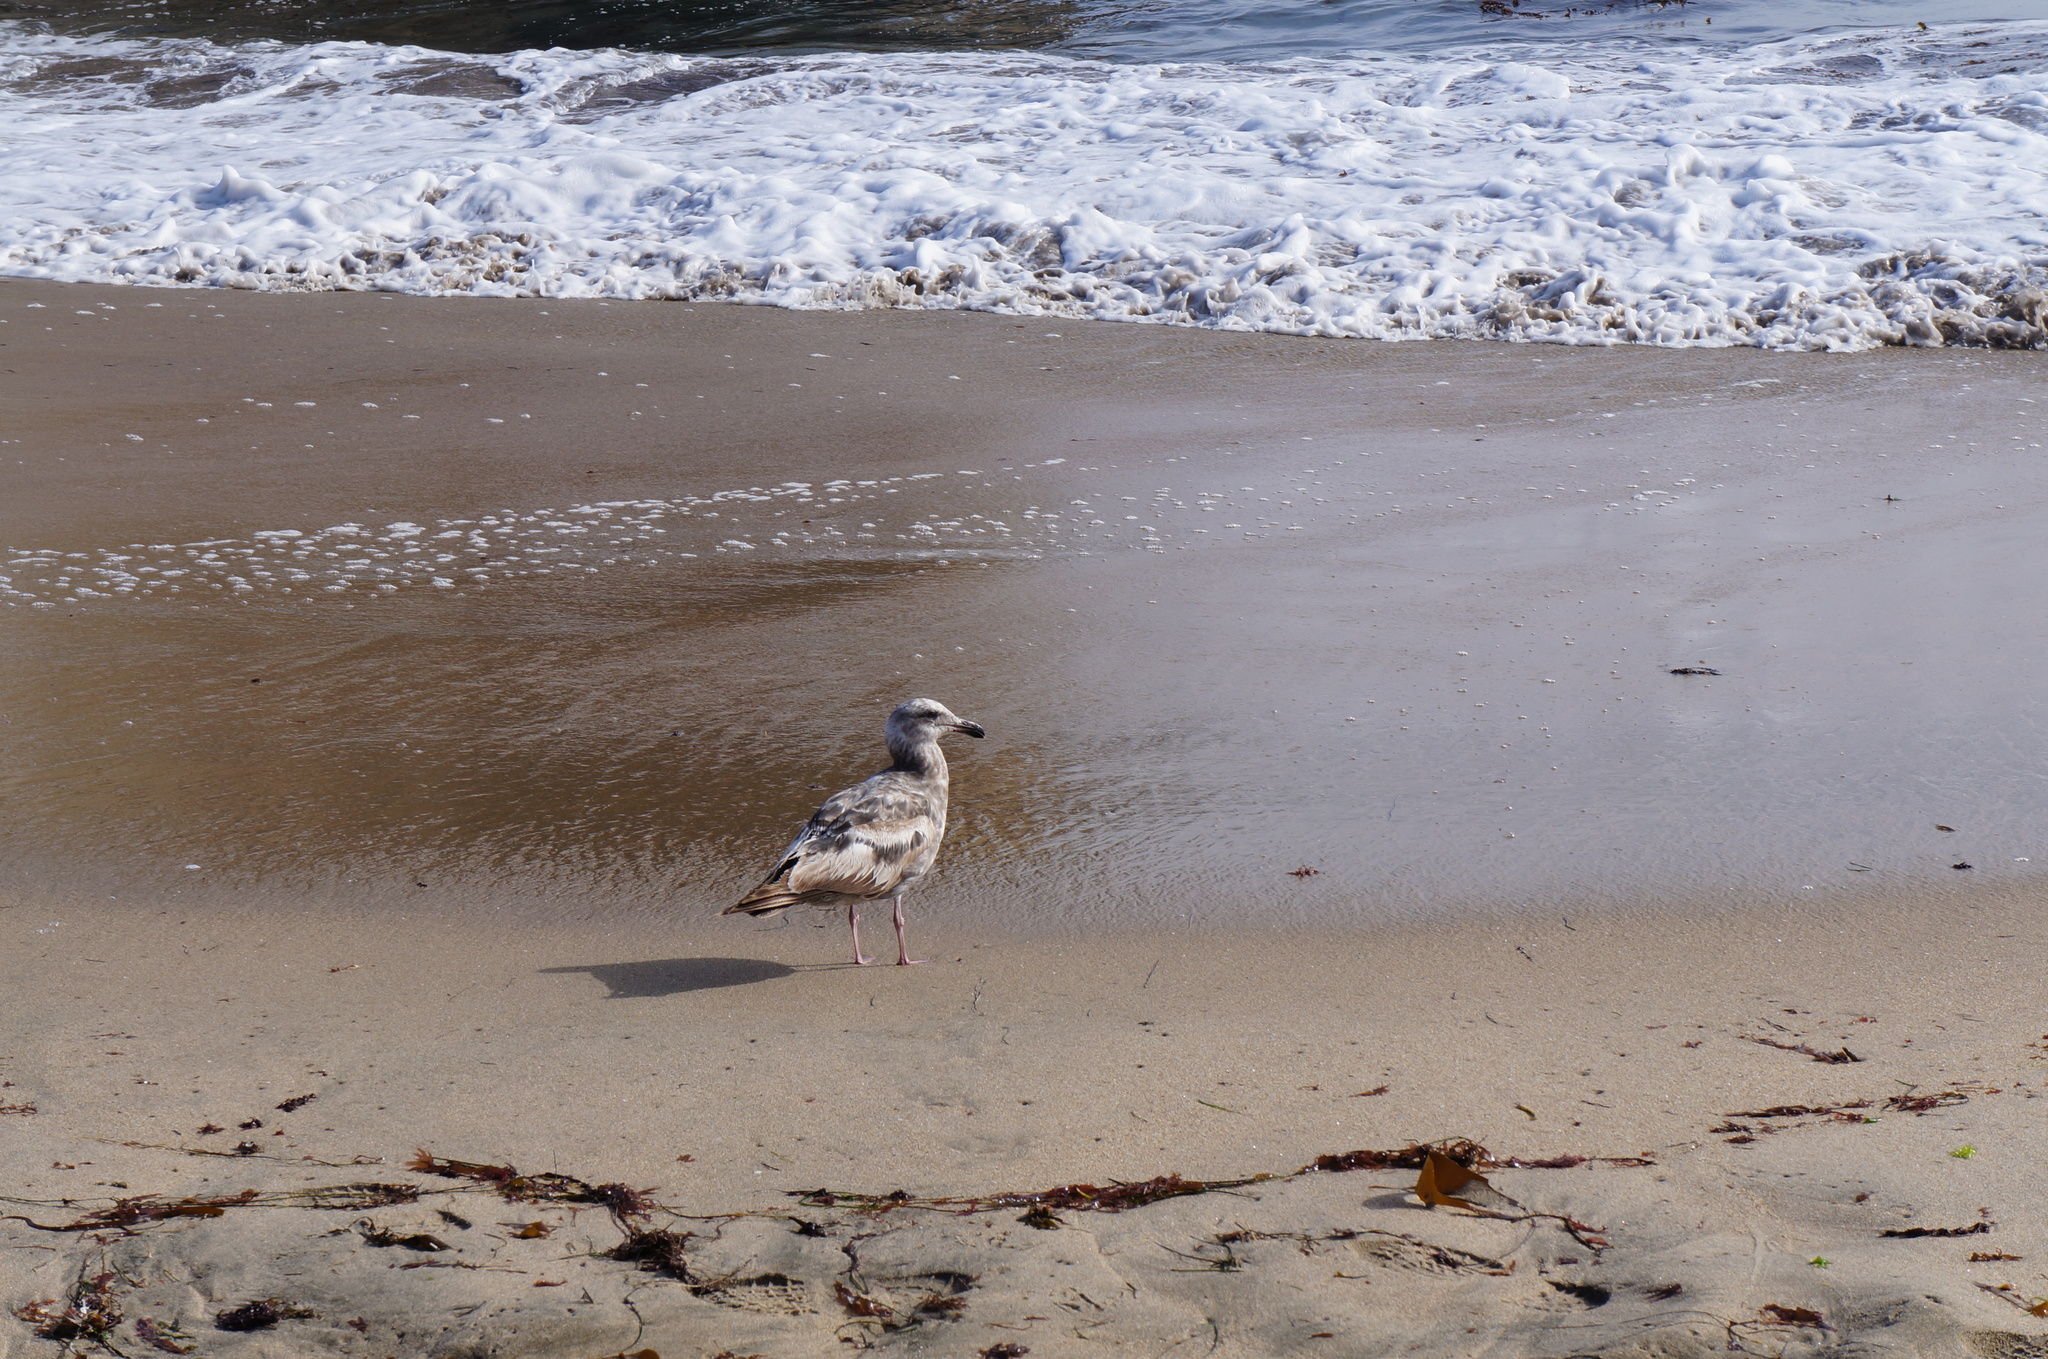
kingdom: Animalia
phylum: Chordata
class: Aves
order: Charadriiformes
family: Laridae
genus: Larus
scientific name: Larus occidentalis
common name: Western gull
